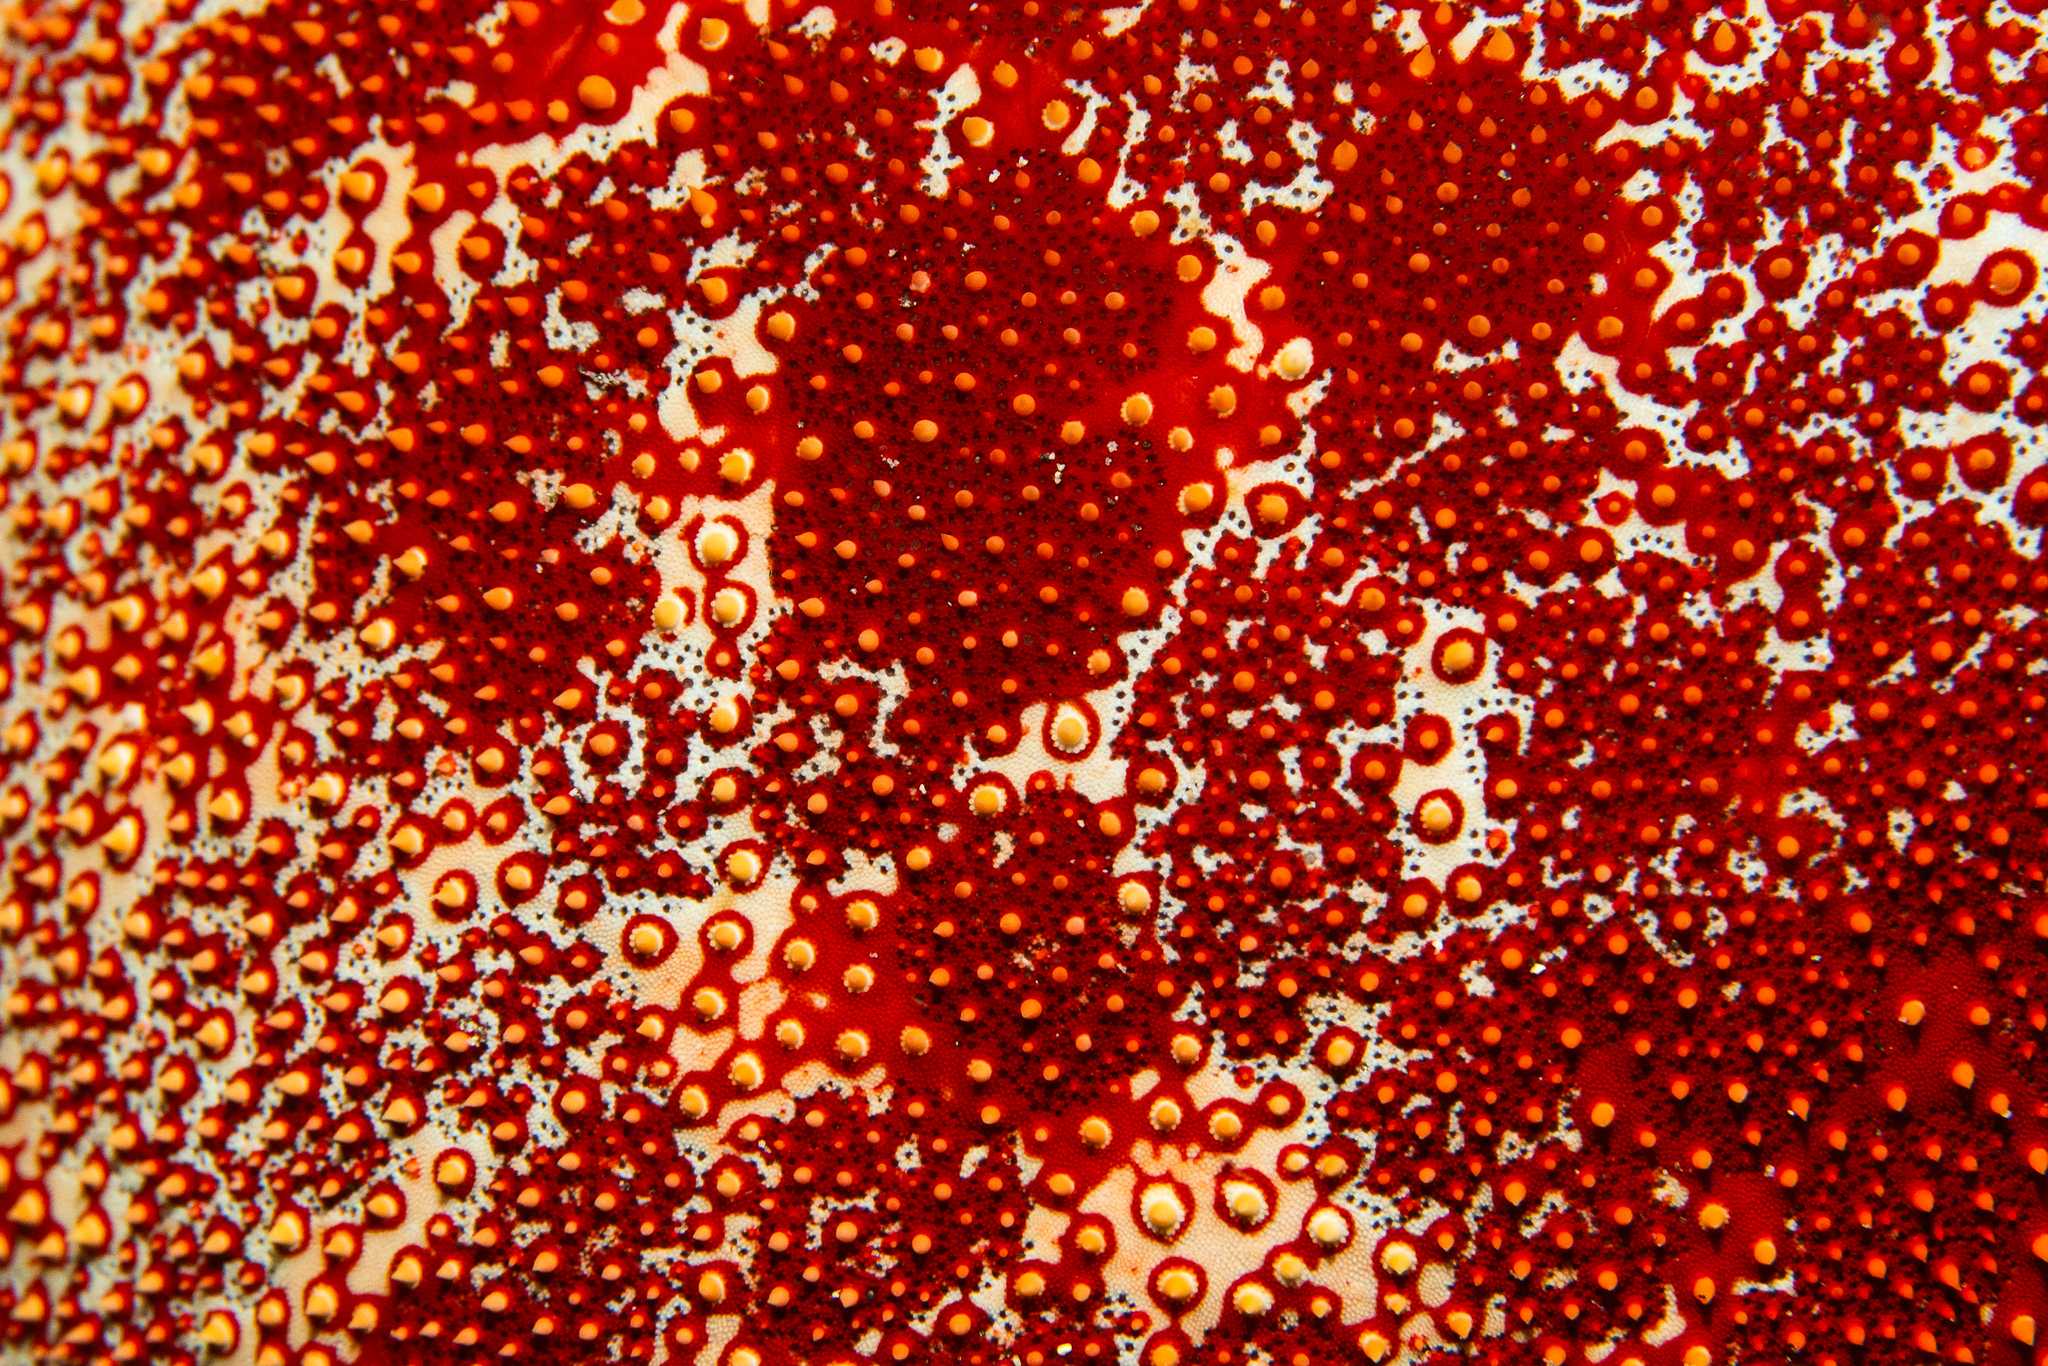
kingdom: Animalia
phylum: Echinodermata
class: Asteroidea
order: Valvatida
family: Oreasteridae
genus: Culcita
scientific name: Culcita novaeguineae
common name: Cushion star
